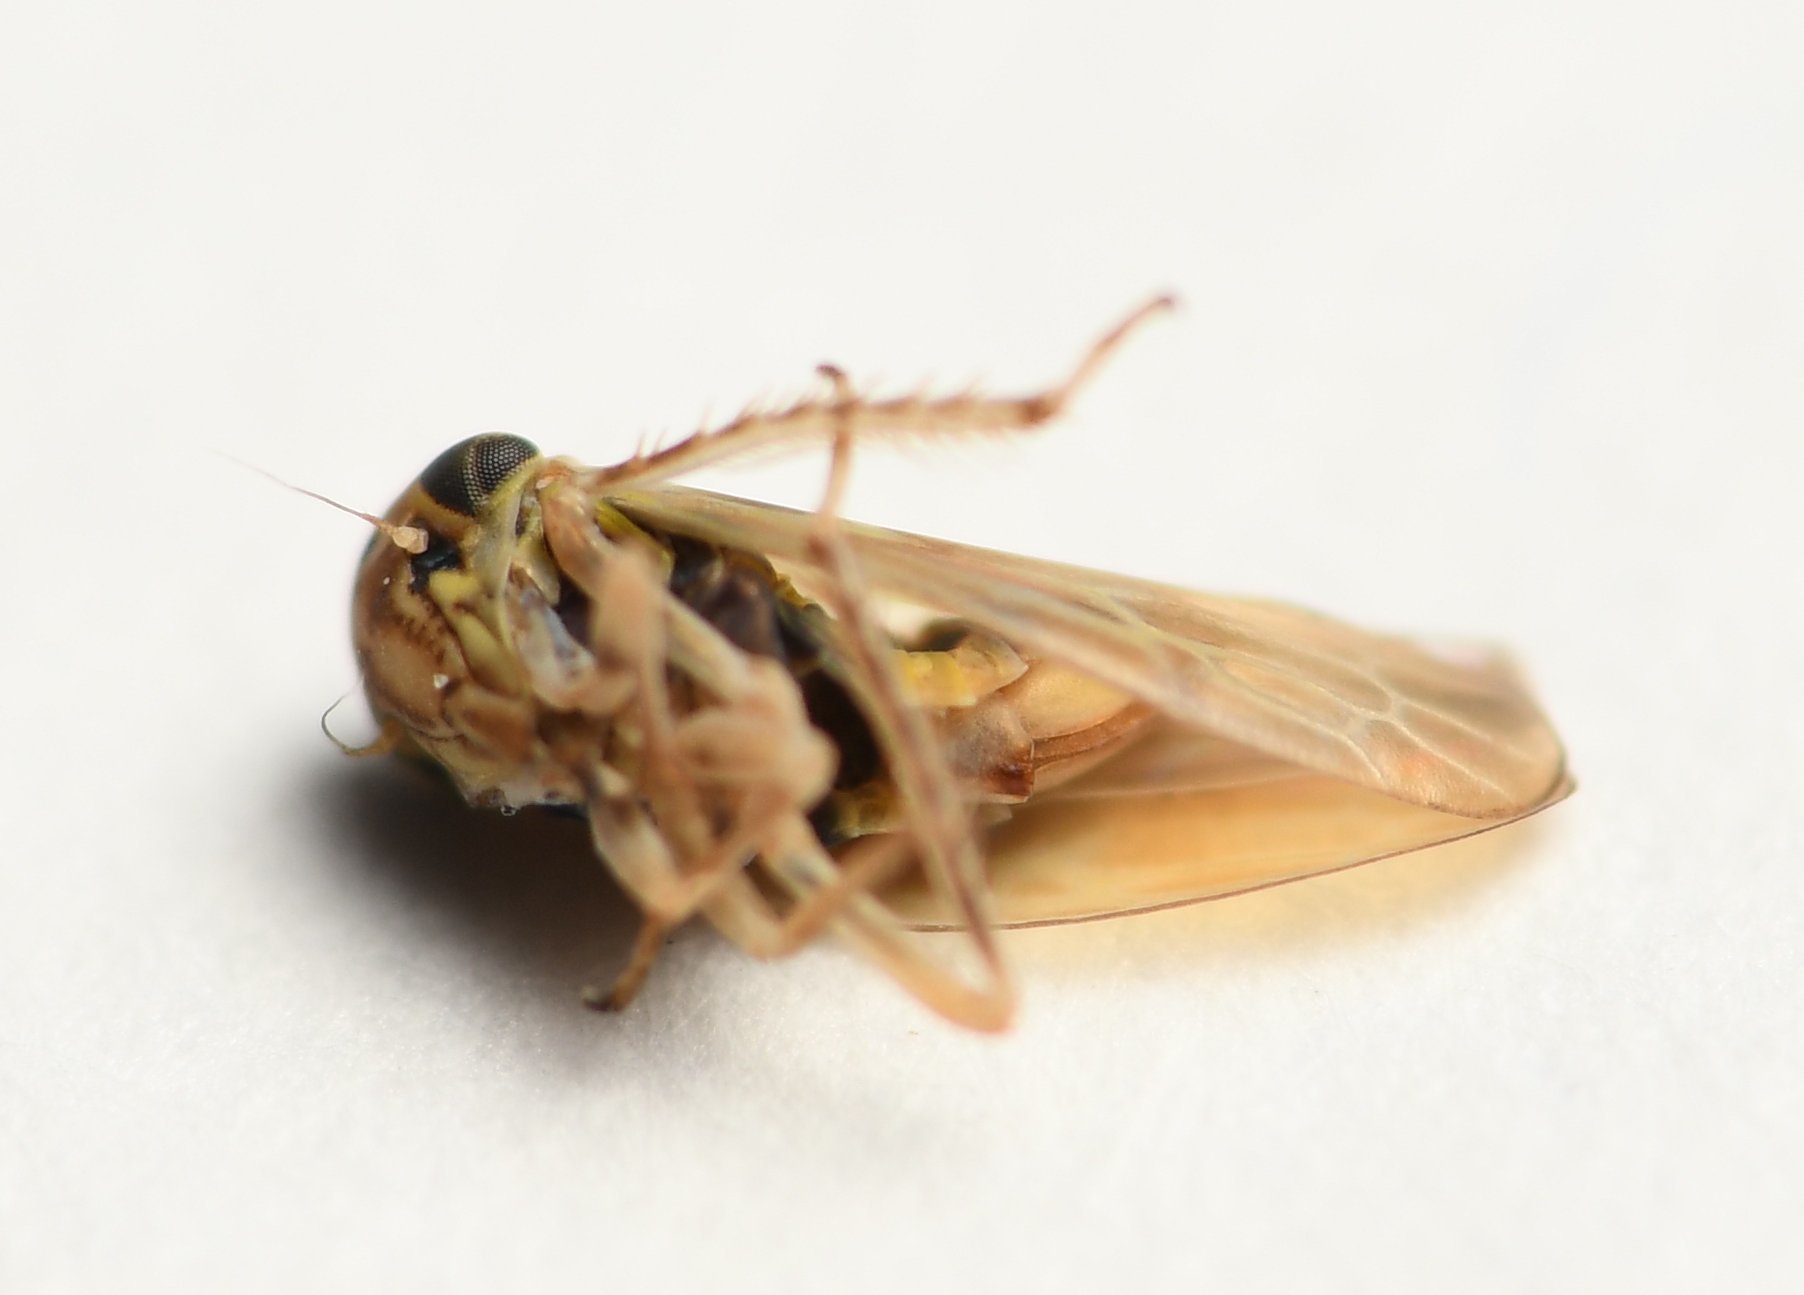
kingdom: Animalia
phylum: Arthropoda
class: Insecta
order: Hemiptera
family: Cicadellidae
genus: Agallia
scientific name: Agallia albidula
